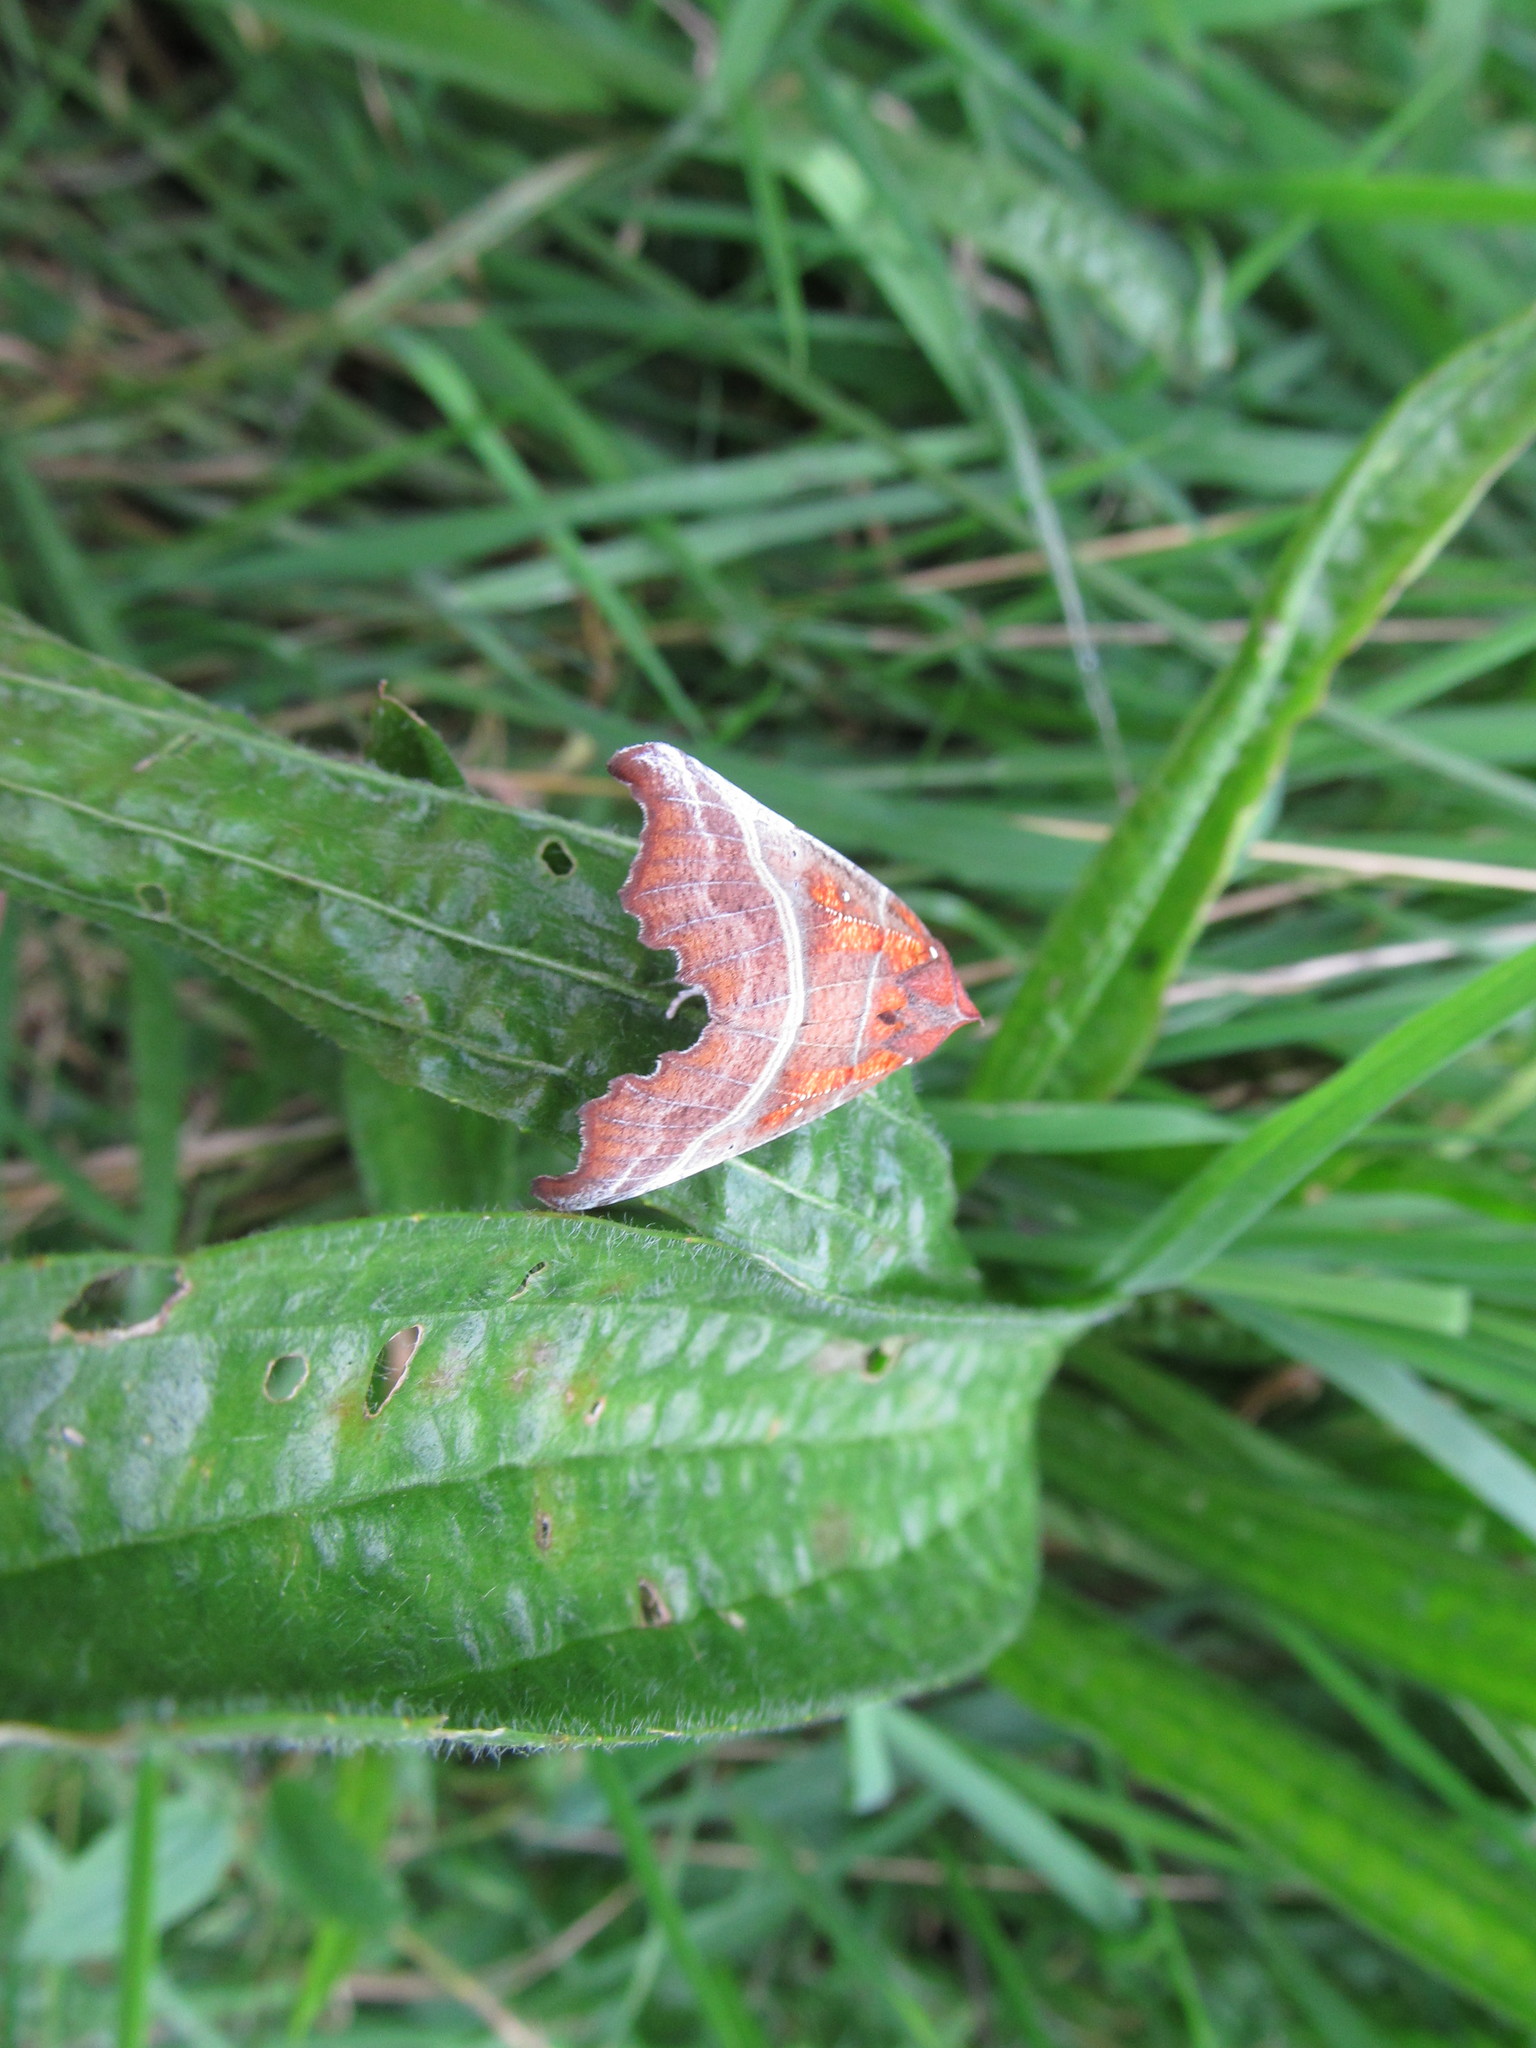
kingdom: Animalia
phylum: Arthropoda
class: Insecta
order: Lepidoptera
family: Erebidae
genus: Scoliopteryx
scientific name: Scoliopteryx libatrix
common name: Herald
